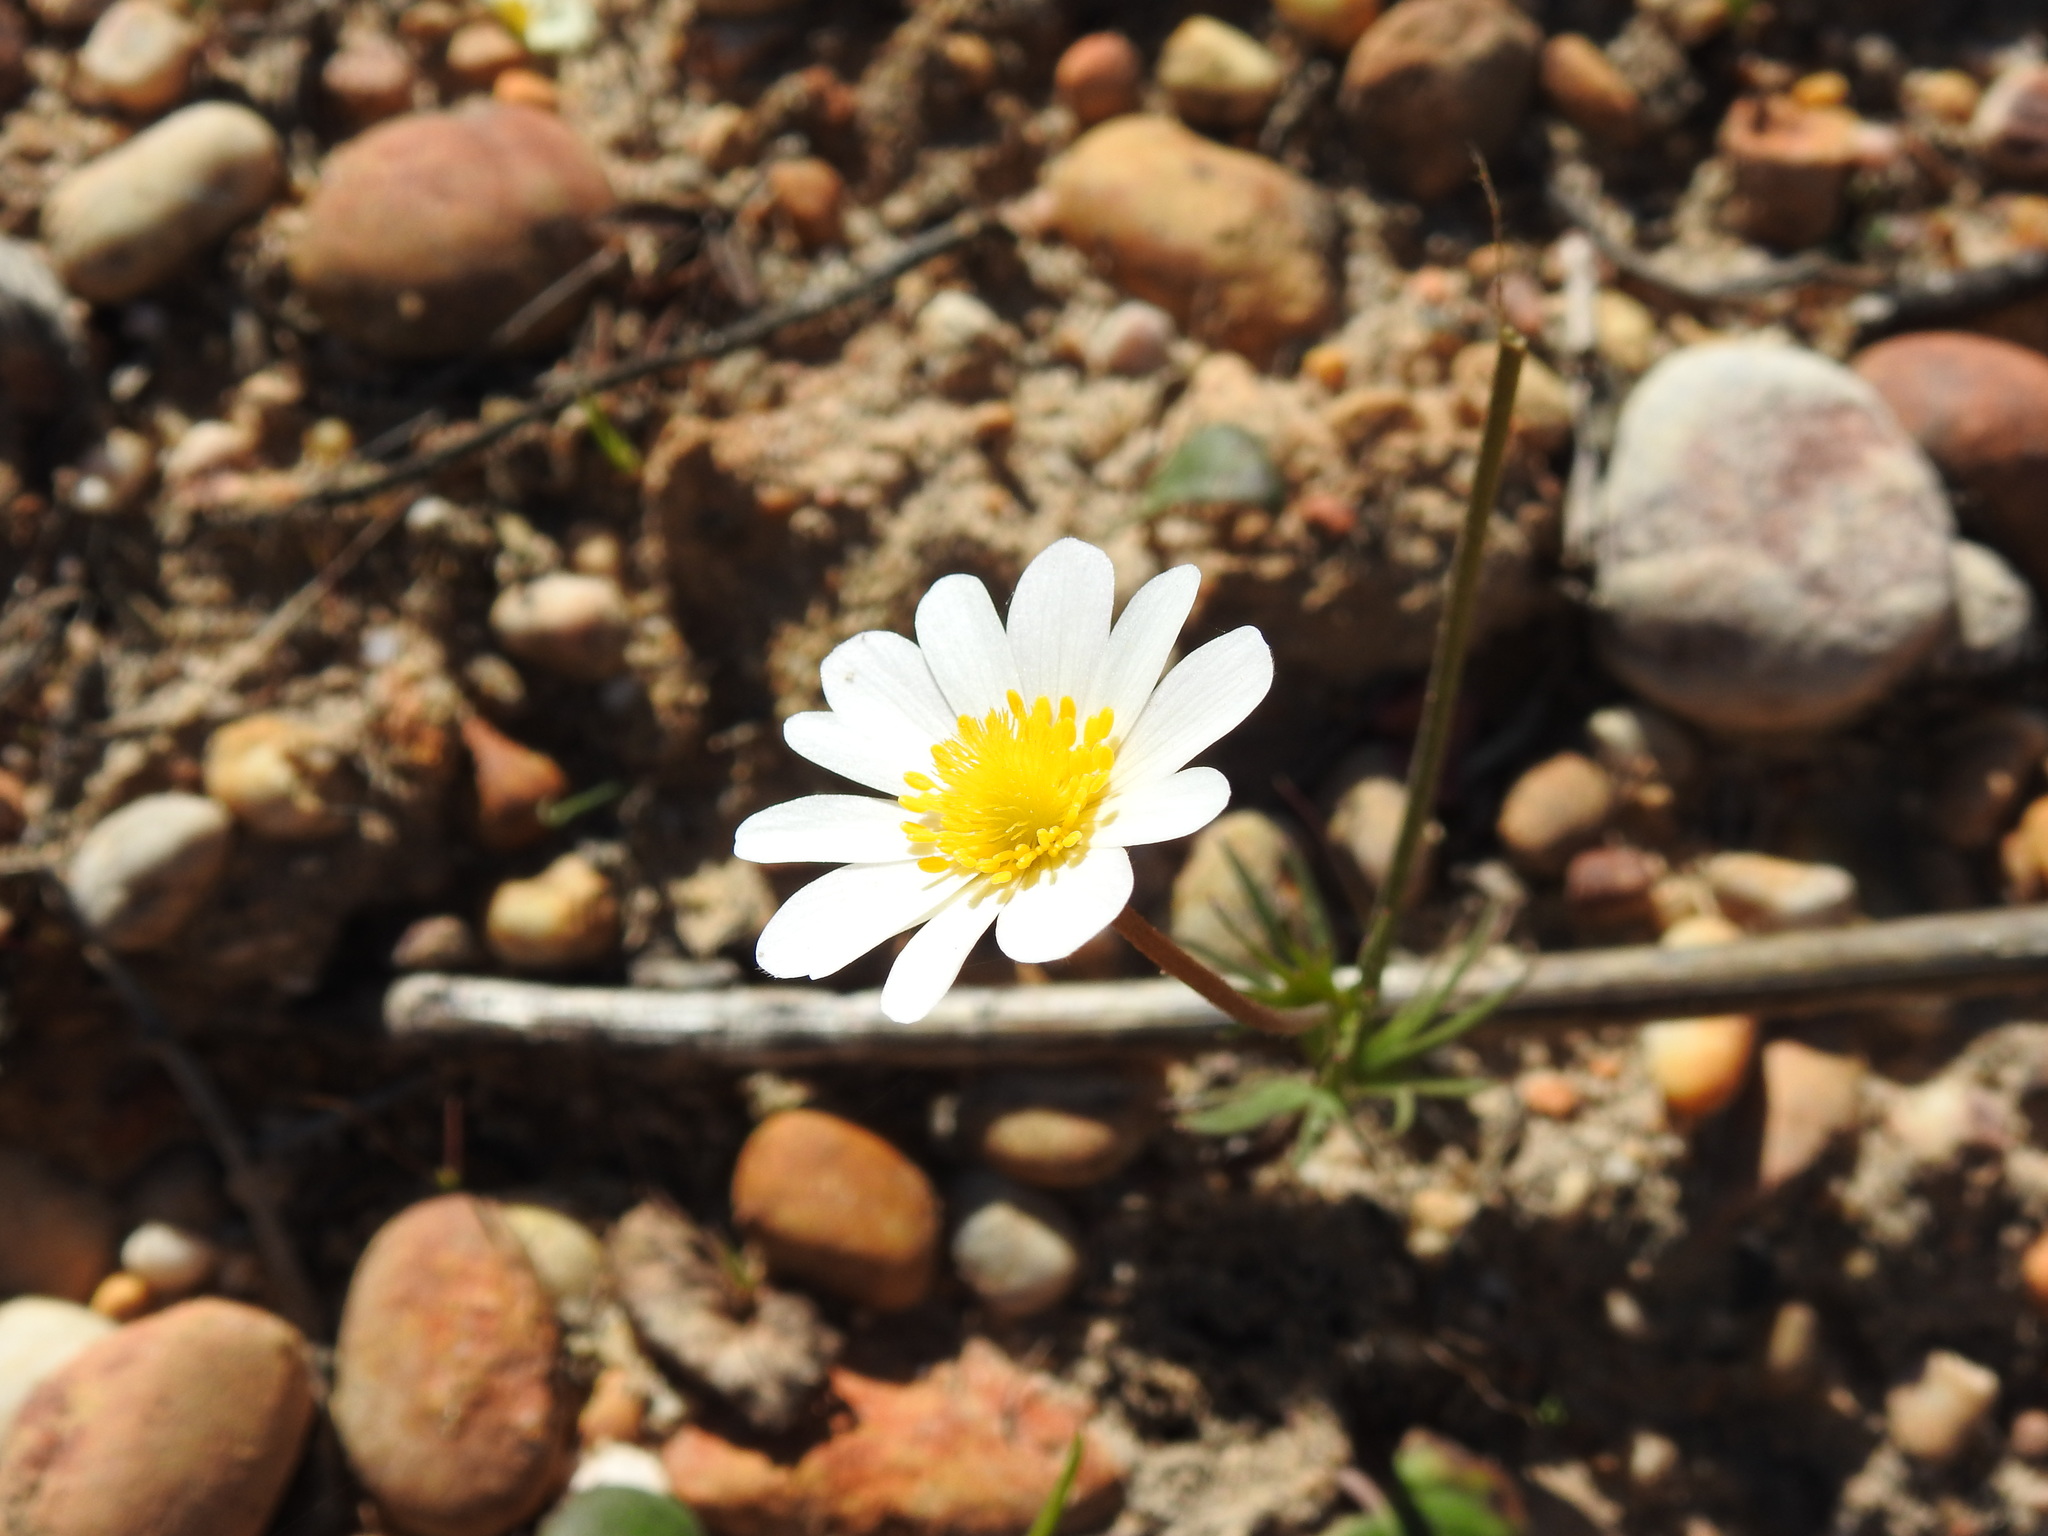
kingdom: Plantae
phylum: Tracheophyta
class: Magnoliopsida
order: Ranunculales
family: Ranunculaceae
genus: Anemone
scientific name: Anemone palmata
